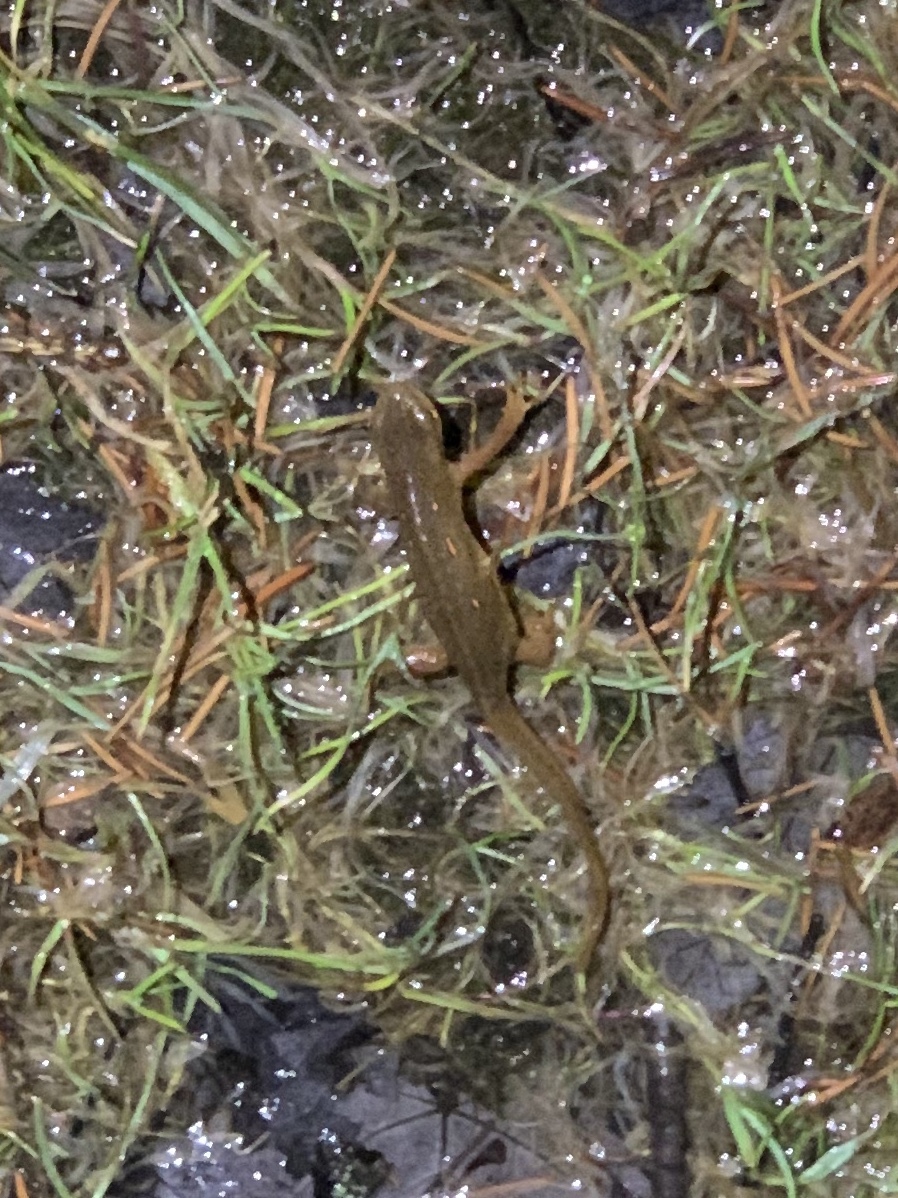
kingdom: Animalia
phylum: Chordata
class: Amphibia
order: Caudata
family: Salamandridae
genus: Notophthalmus
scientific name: Notophthalmus viridescens
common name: Eastern newt
